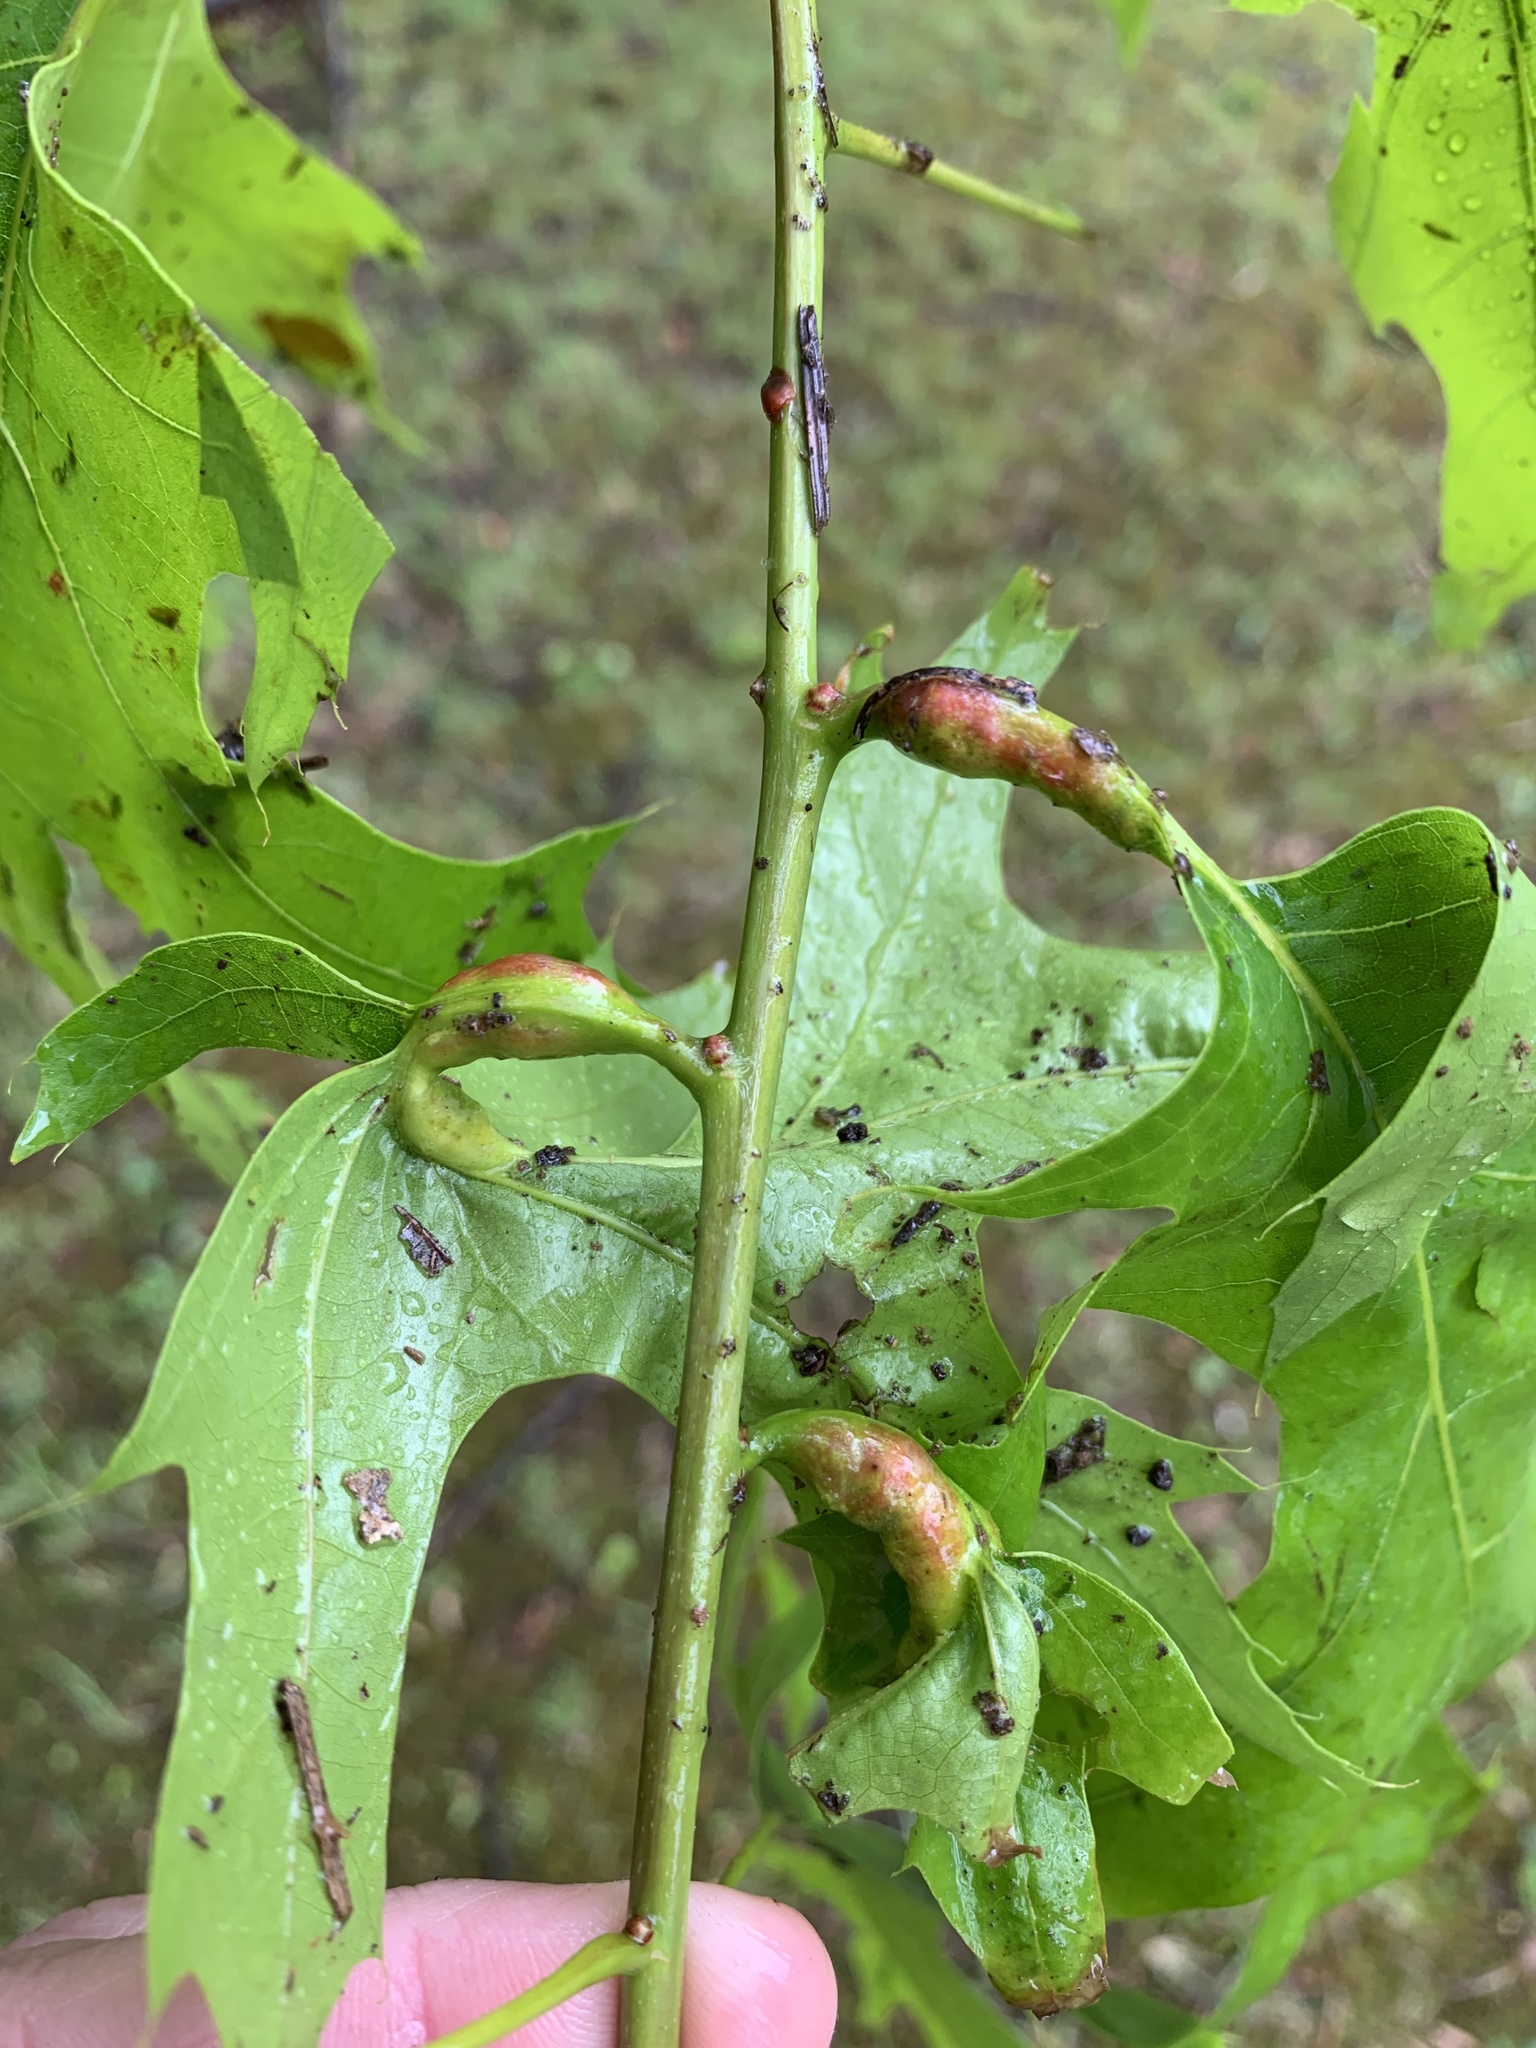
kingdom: Animalia
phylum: Arthropoda
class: Insecta
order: Hymenoptera
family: Cynipidae
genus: Melikaiella
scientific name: Melikaiella tumifica
